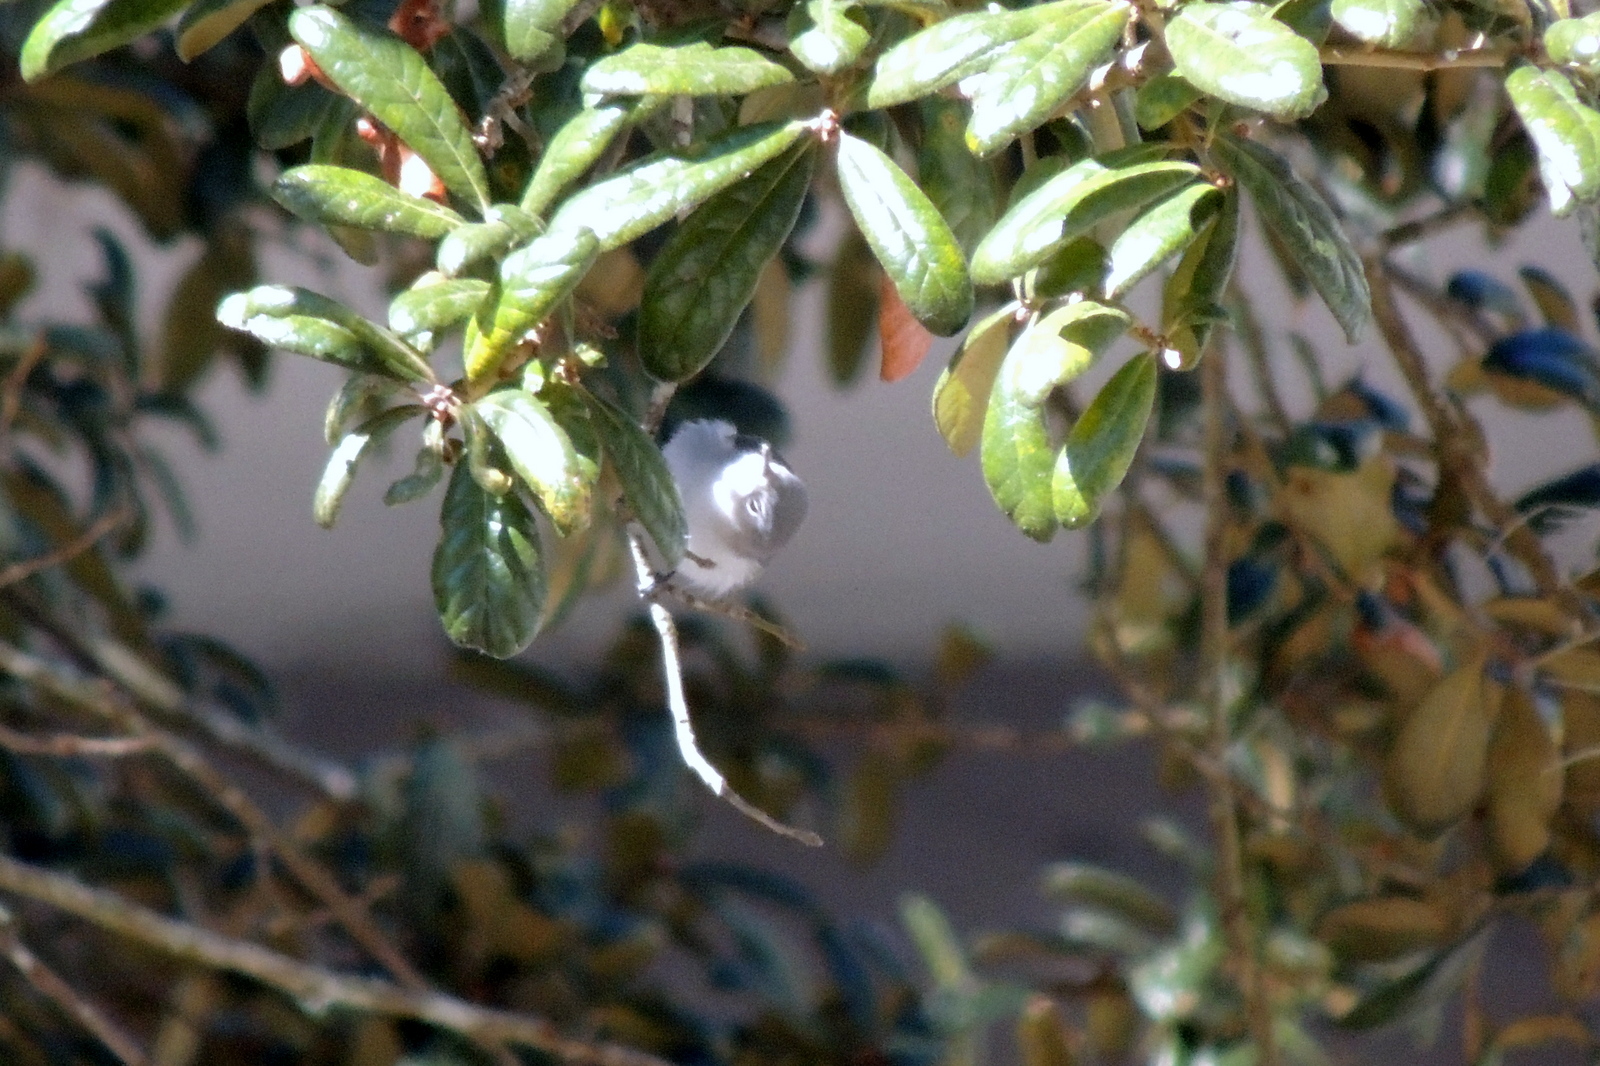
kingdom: Animalia
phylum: Chordata
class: Aves
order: Passeriformes
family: Regulidae
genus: Regulus
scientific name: Regulus calendula
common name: Ruby-crowned kinglet
